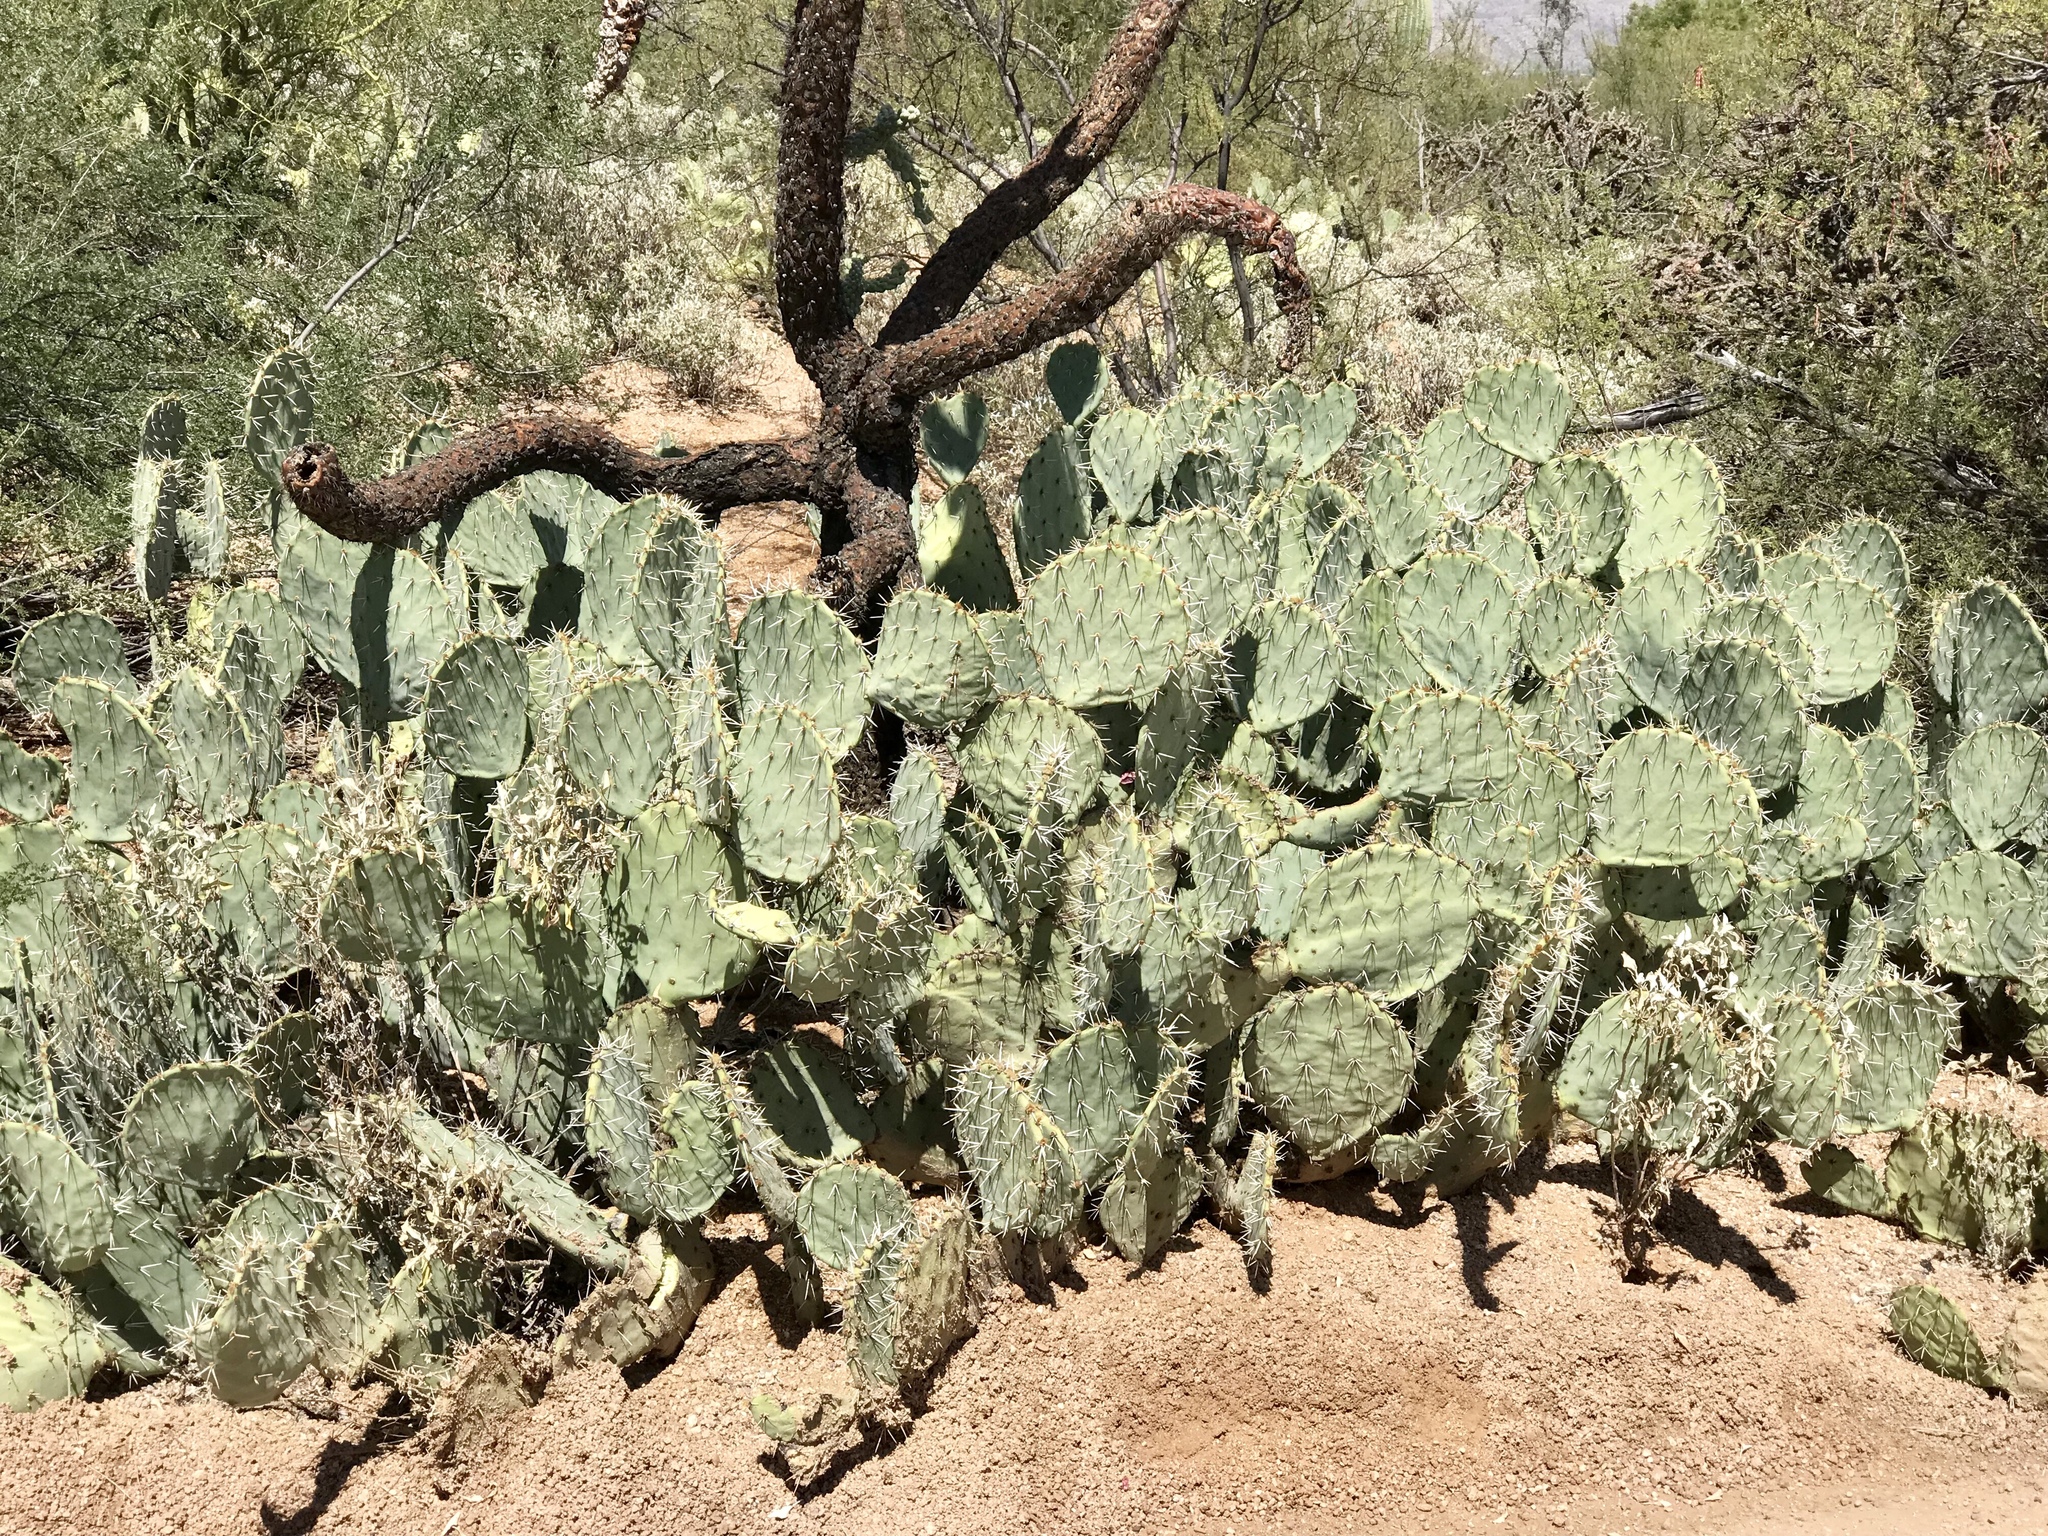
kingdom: Plantae
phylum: Tracheophyta
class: Magnoliopsida
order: Caryophyllales
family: Cactaceae
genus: Opuntia
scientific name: Opuntia engelmannii
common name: Cactus-apple
